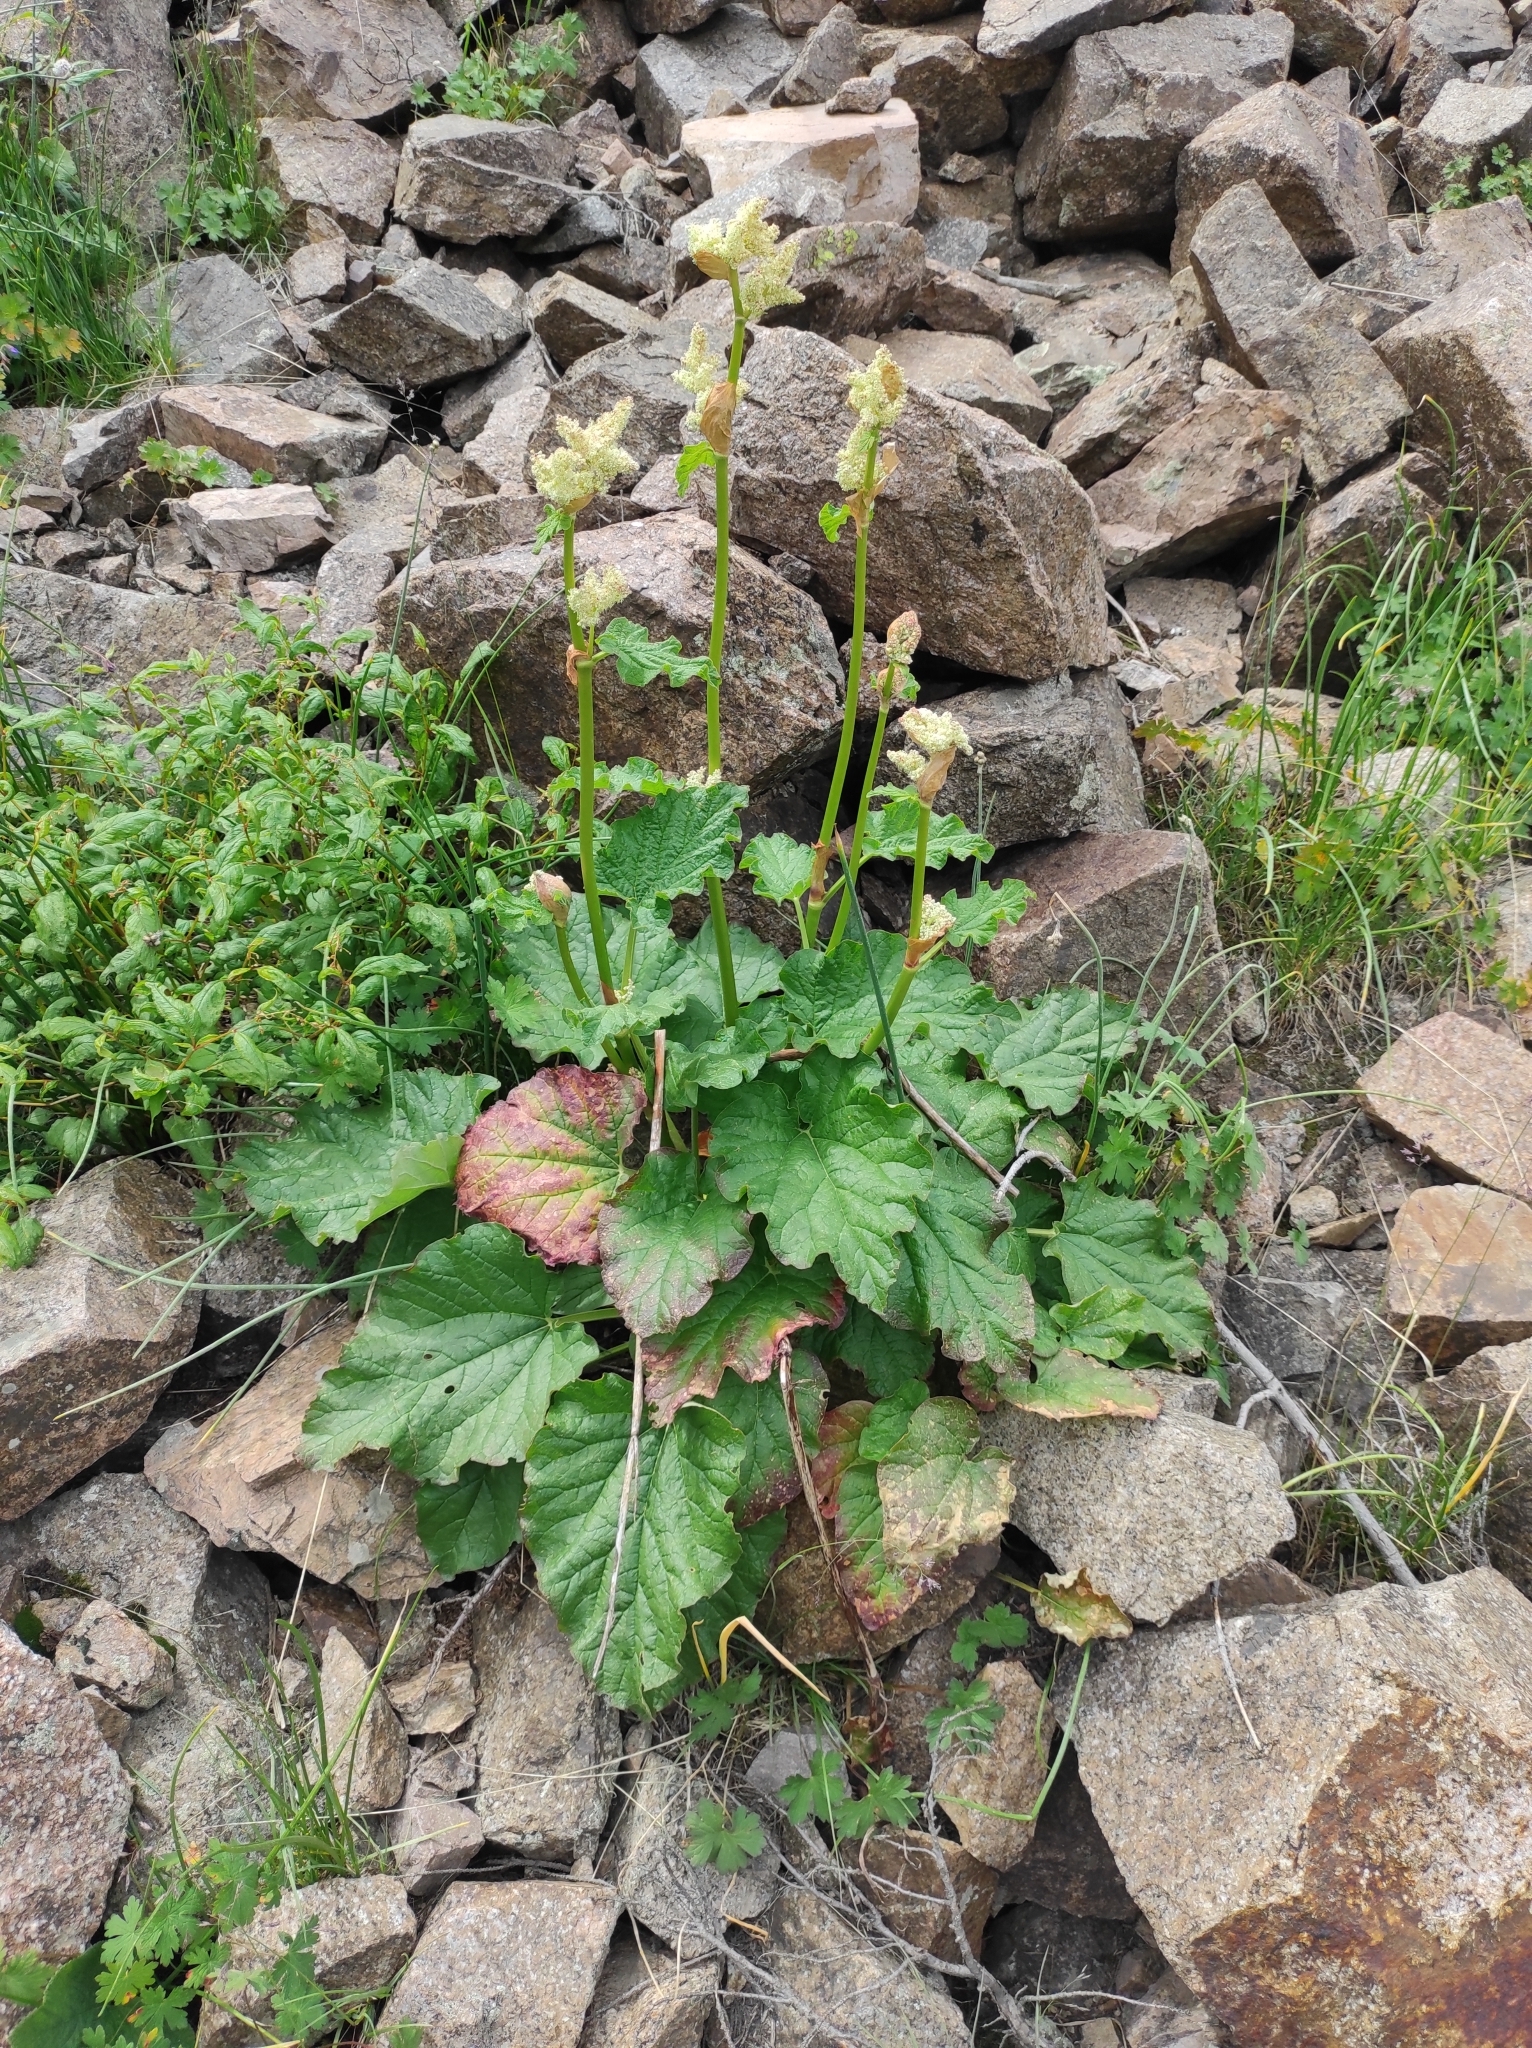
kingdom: Plantae
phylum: Tracheophyta
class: Magnoliopsida
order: Caryophyllales
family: Polygonaceae
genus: Rheum
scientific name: Rheum wittrockii
